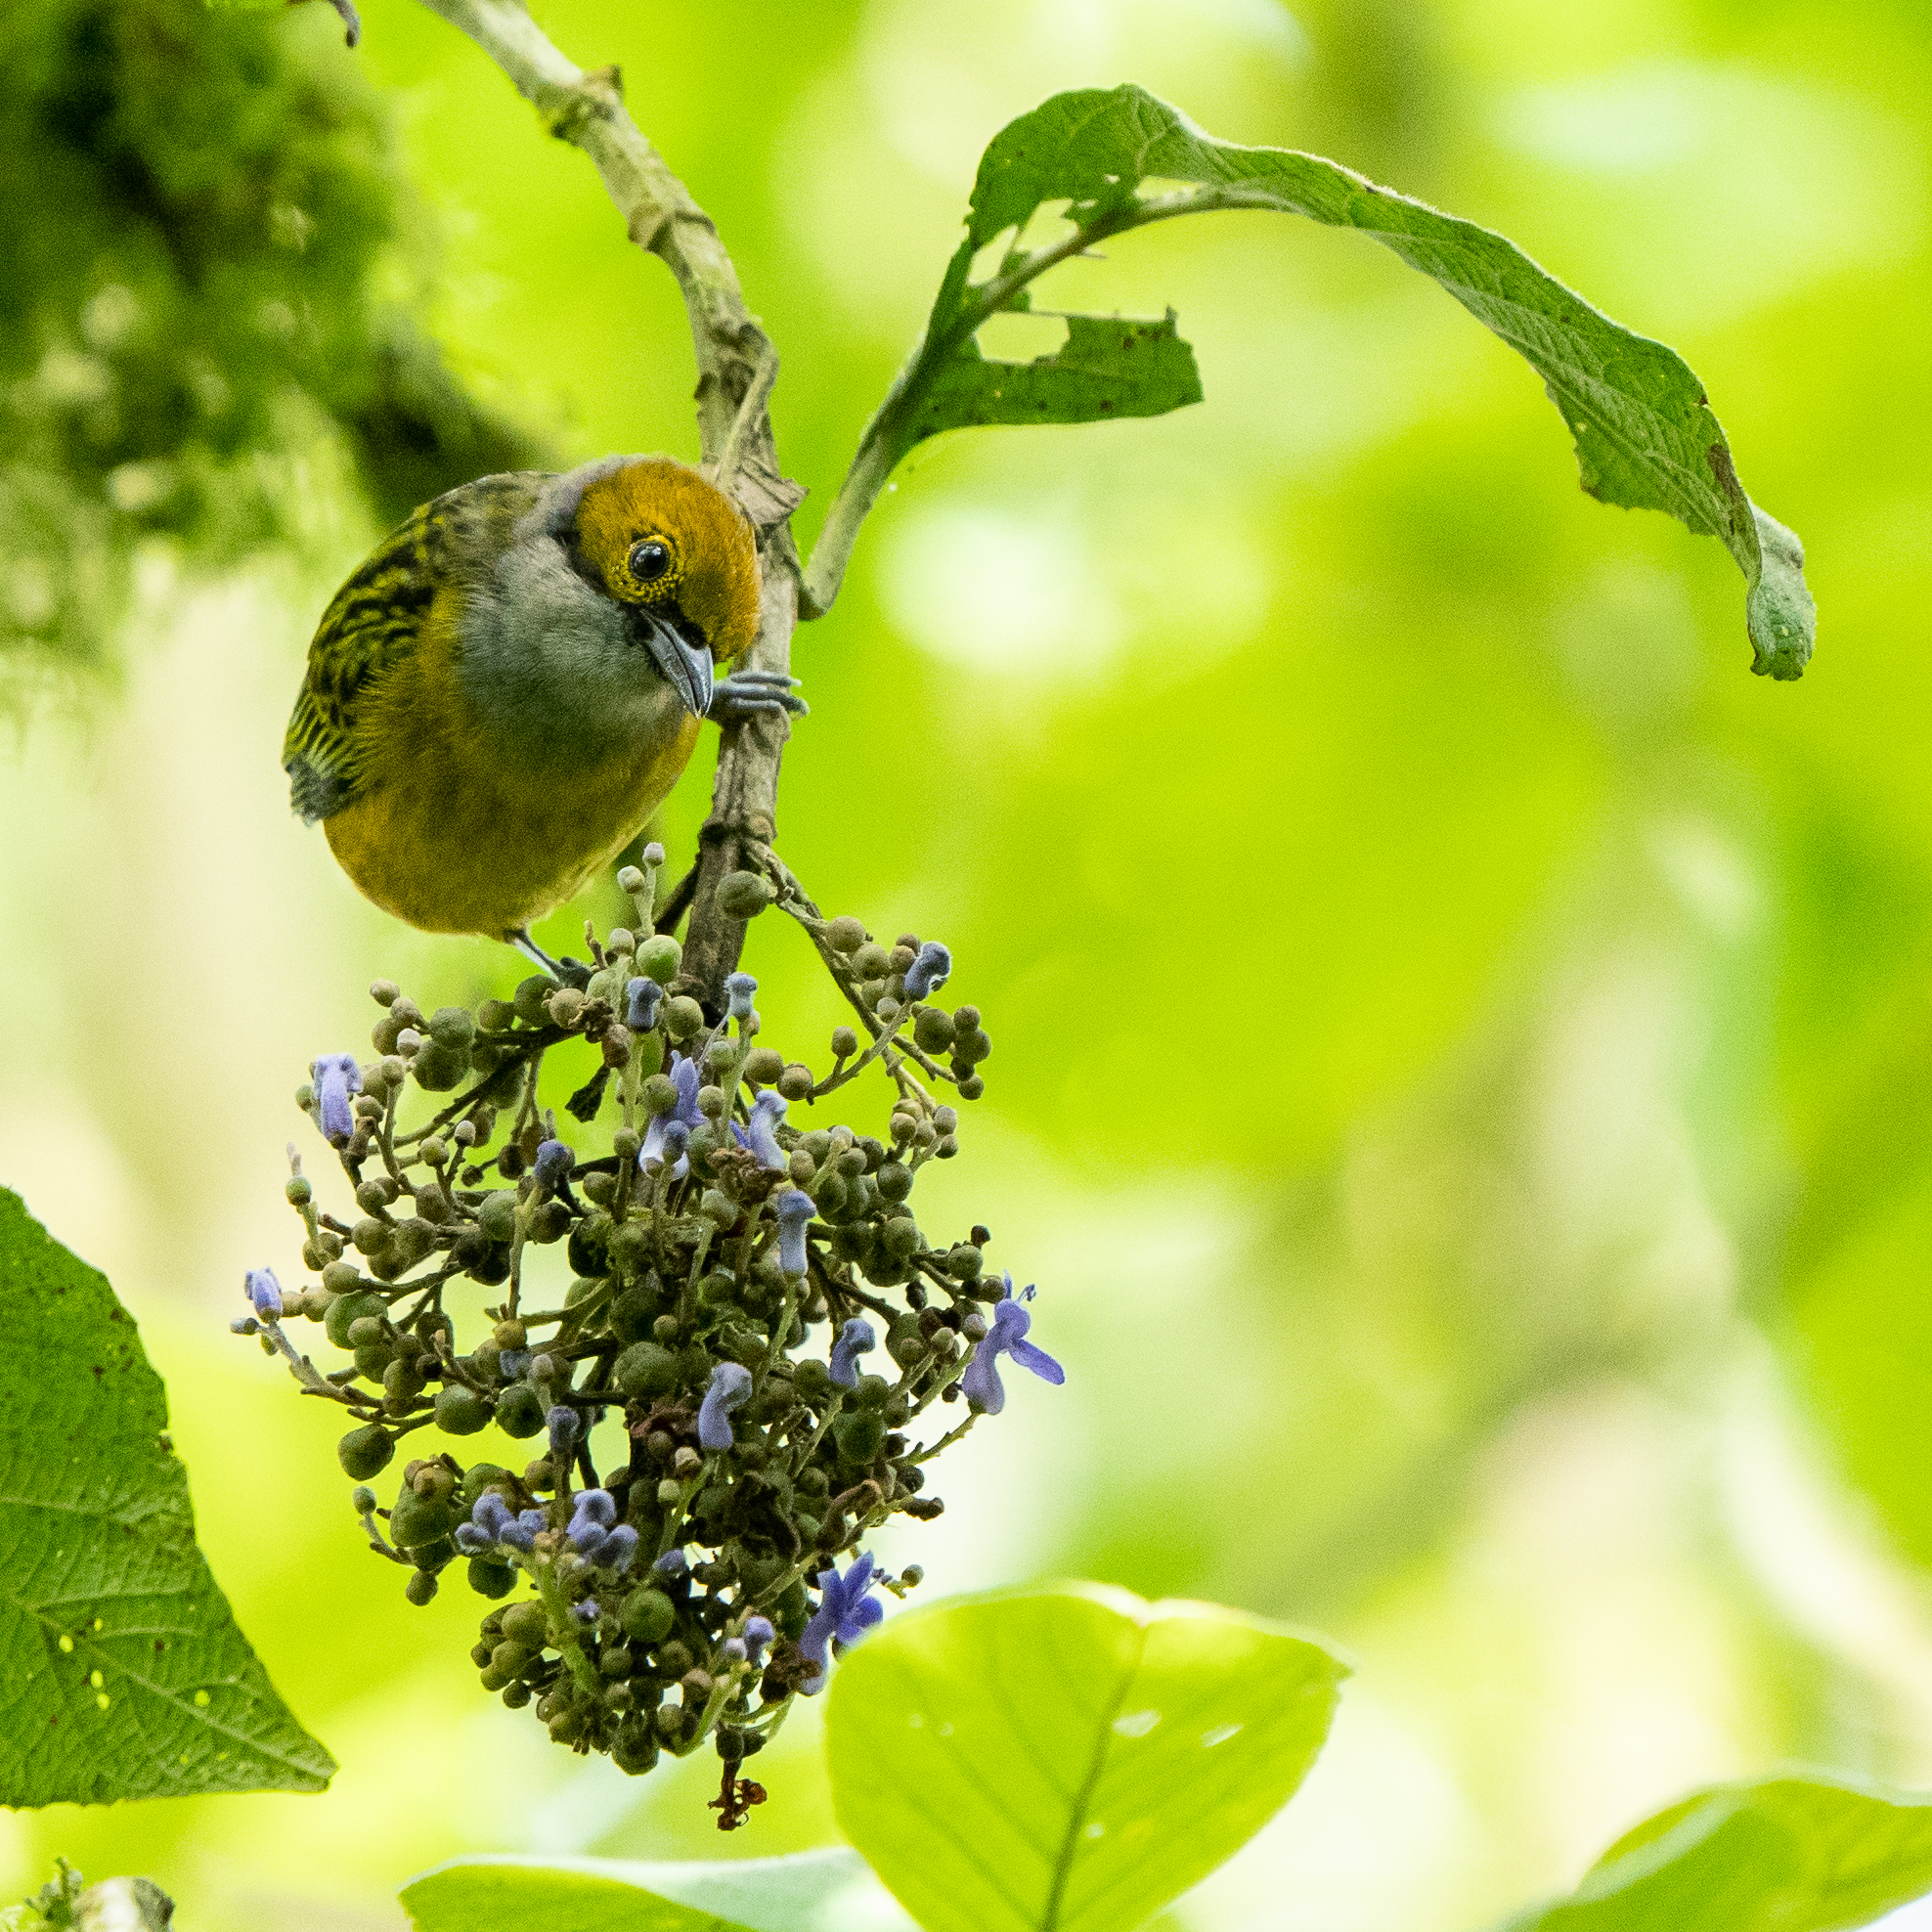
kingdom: Animalia
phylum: Chordata
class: Aves
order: Passeriformes
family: Thraupidae
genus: Tangara
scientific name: Tangara icterocephala
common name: Silver-throated tanager
